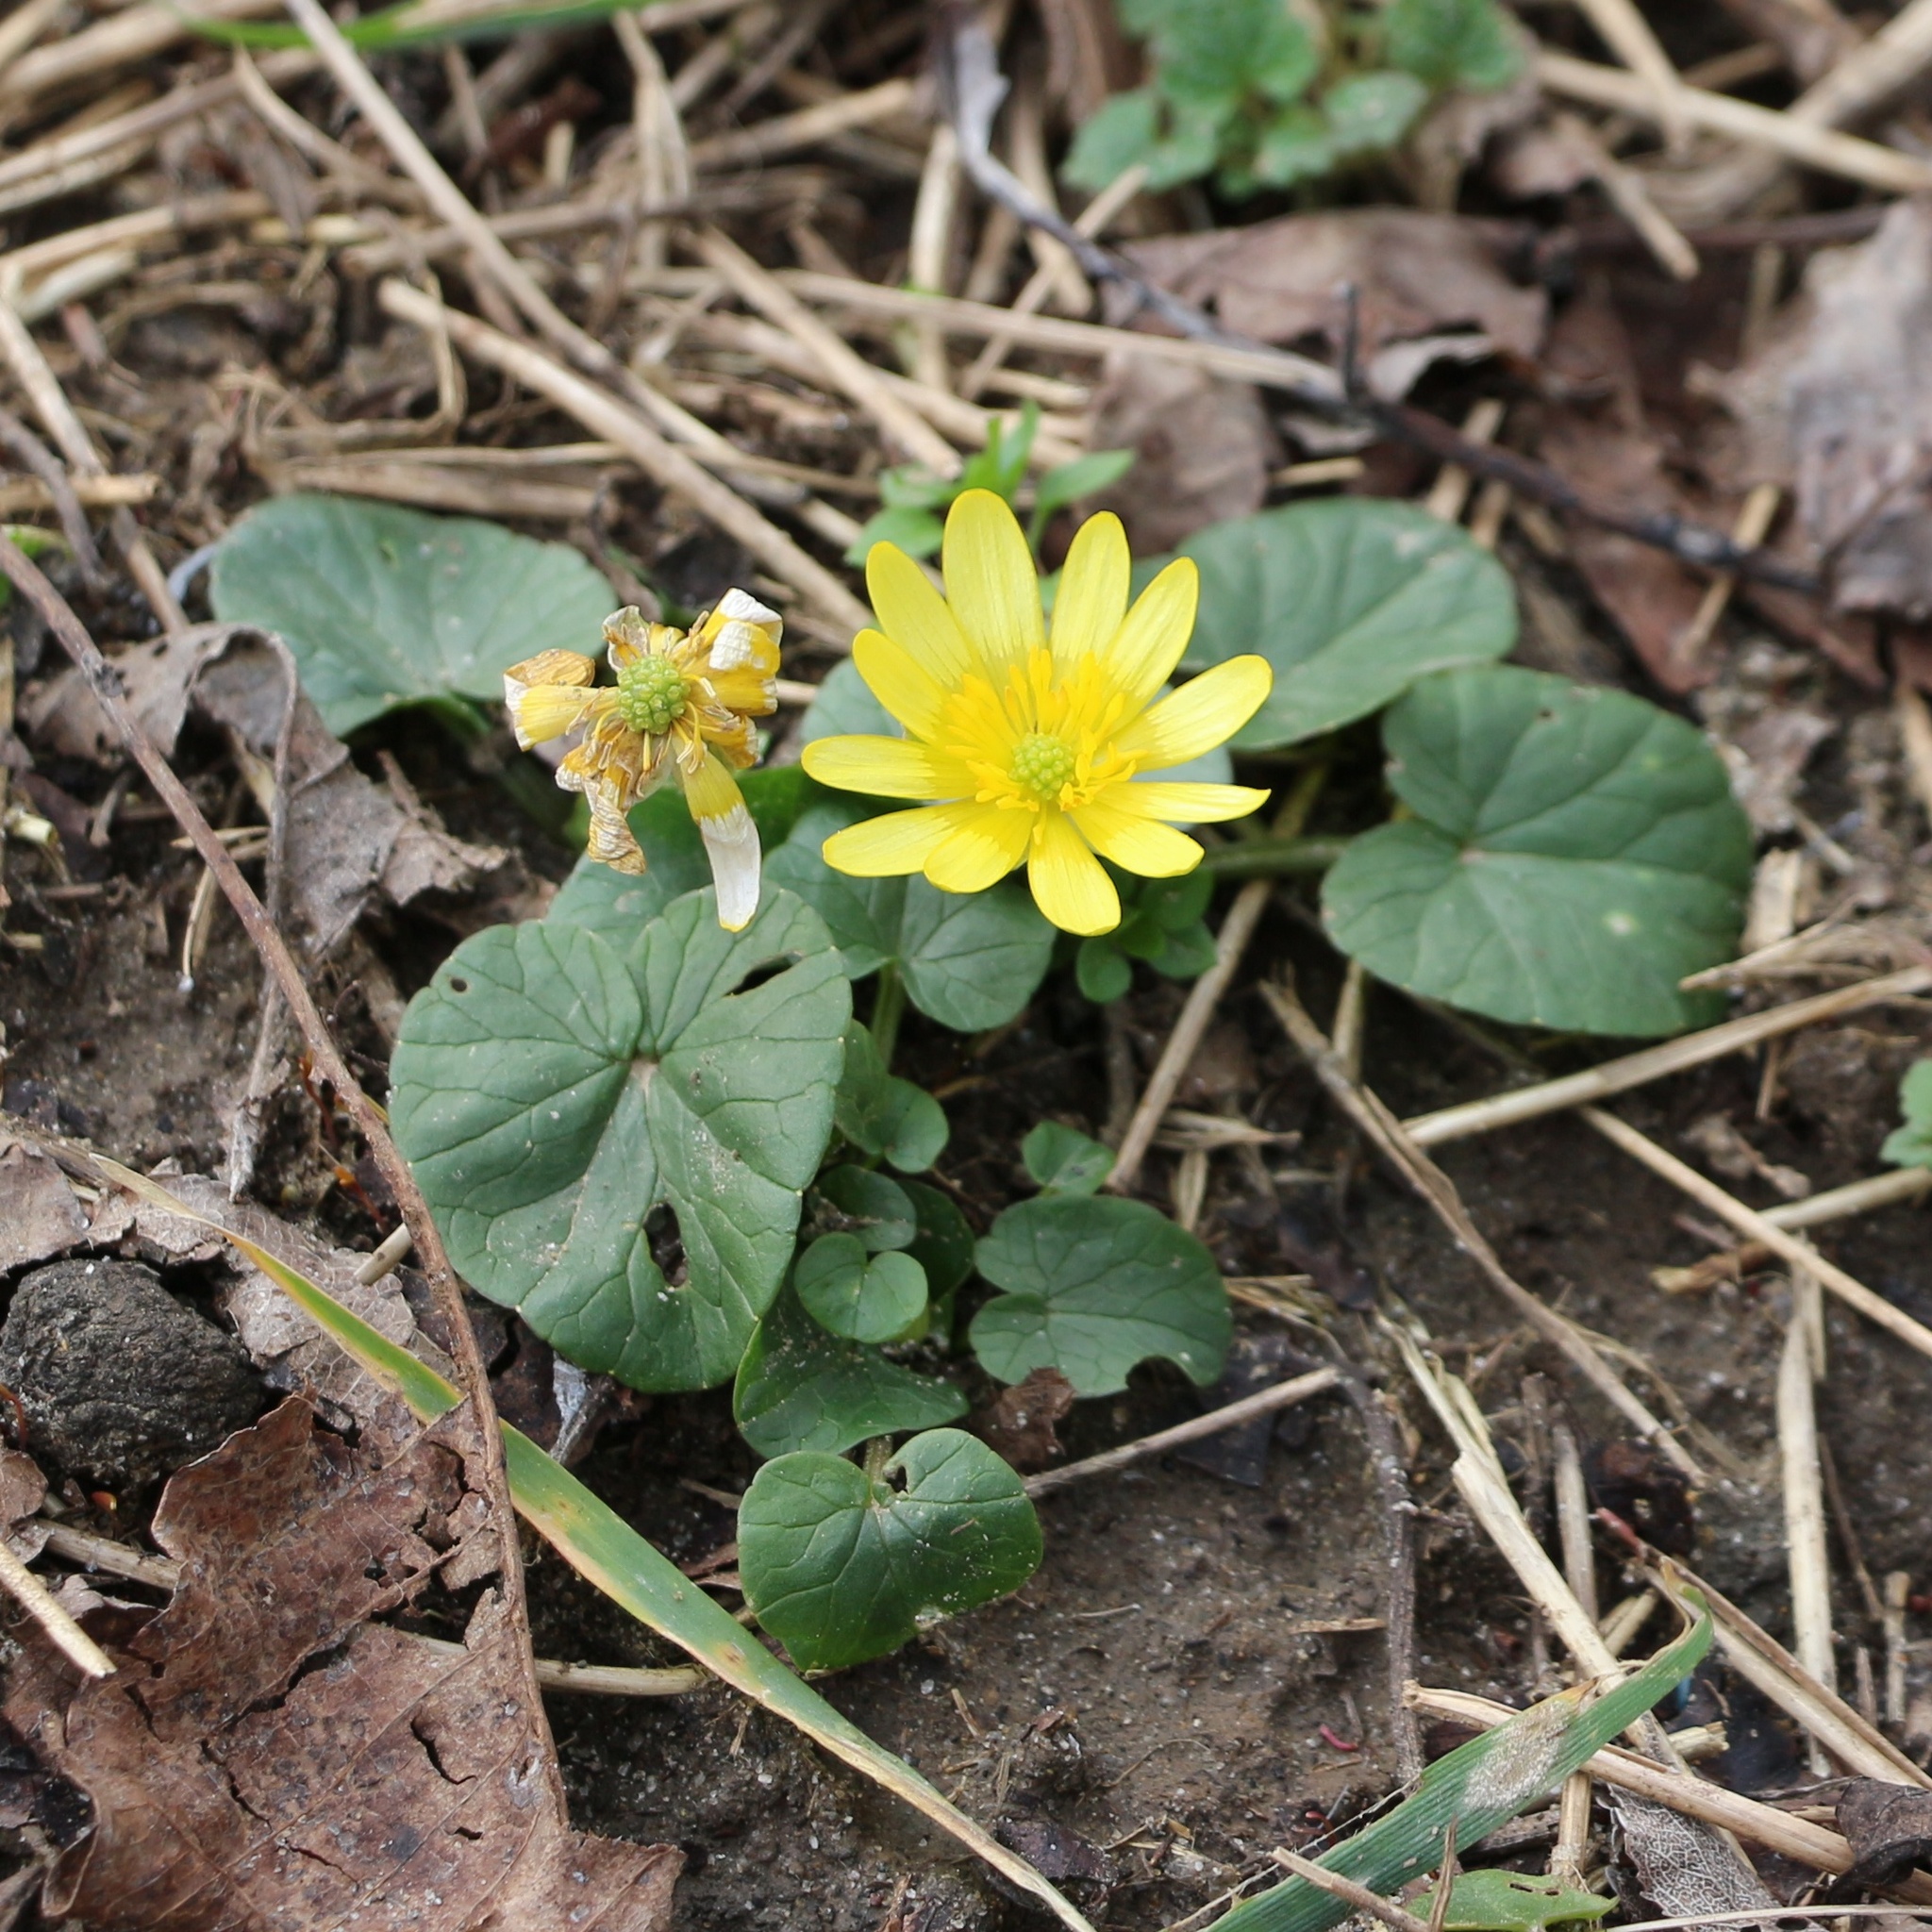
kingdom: Plantae
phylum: Tracheophyta
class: Magnoliopsida
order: Ranunculales
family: Ranunculaceae
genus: Ficaria
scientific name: Ficaria verna
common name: Lesser celandine
